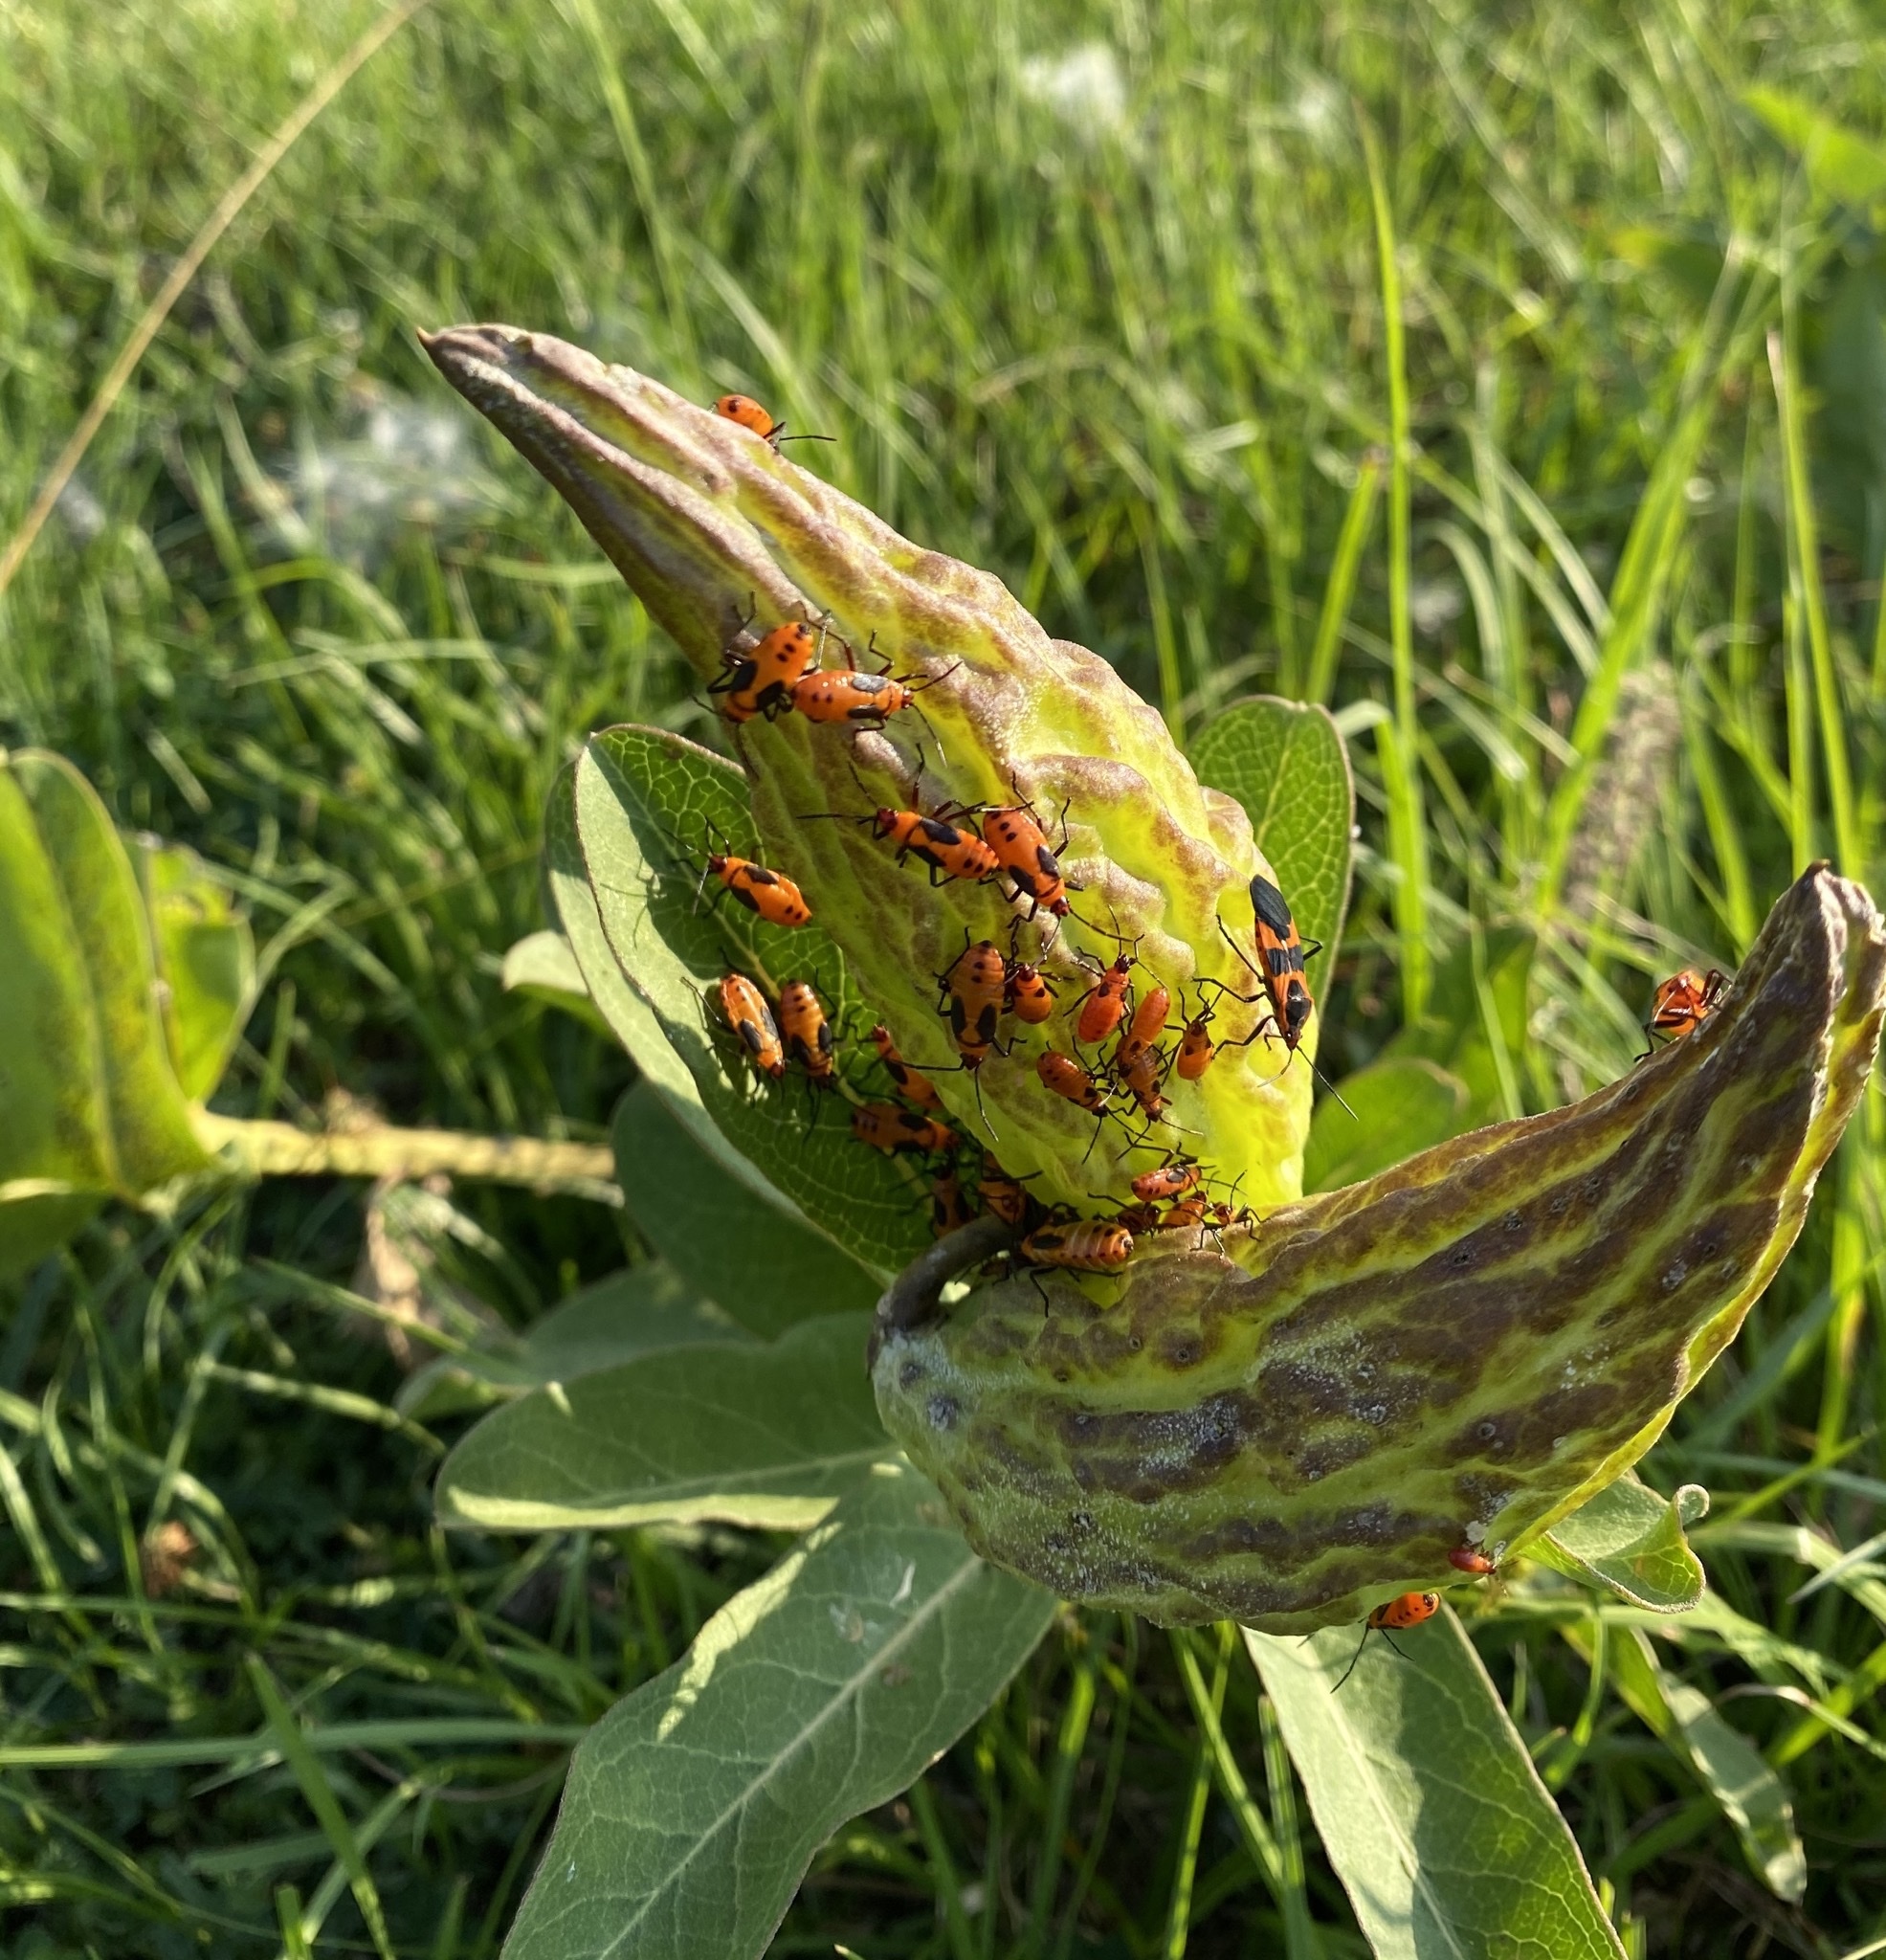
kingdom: Animalia
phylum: Arthropoda
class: Insecta
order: Hemiptera
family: Lygaeidae
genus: Oncopeltus
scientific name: Oncopeltus fasciatus
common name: Large milkweed bug
